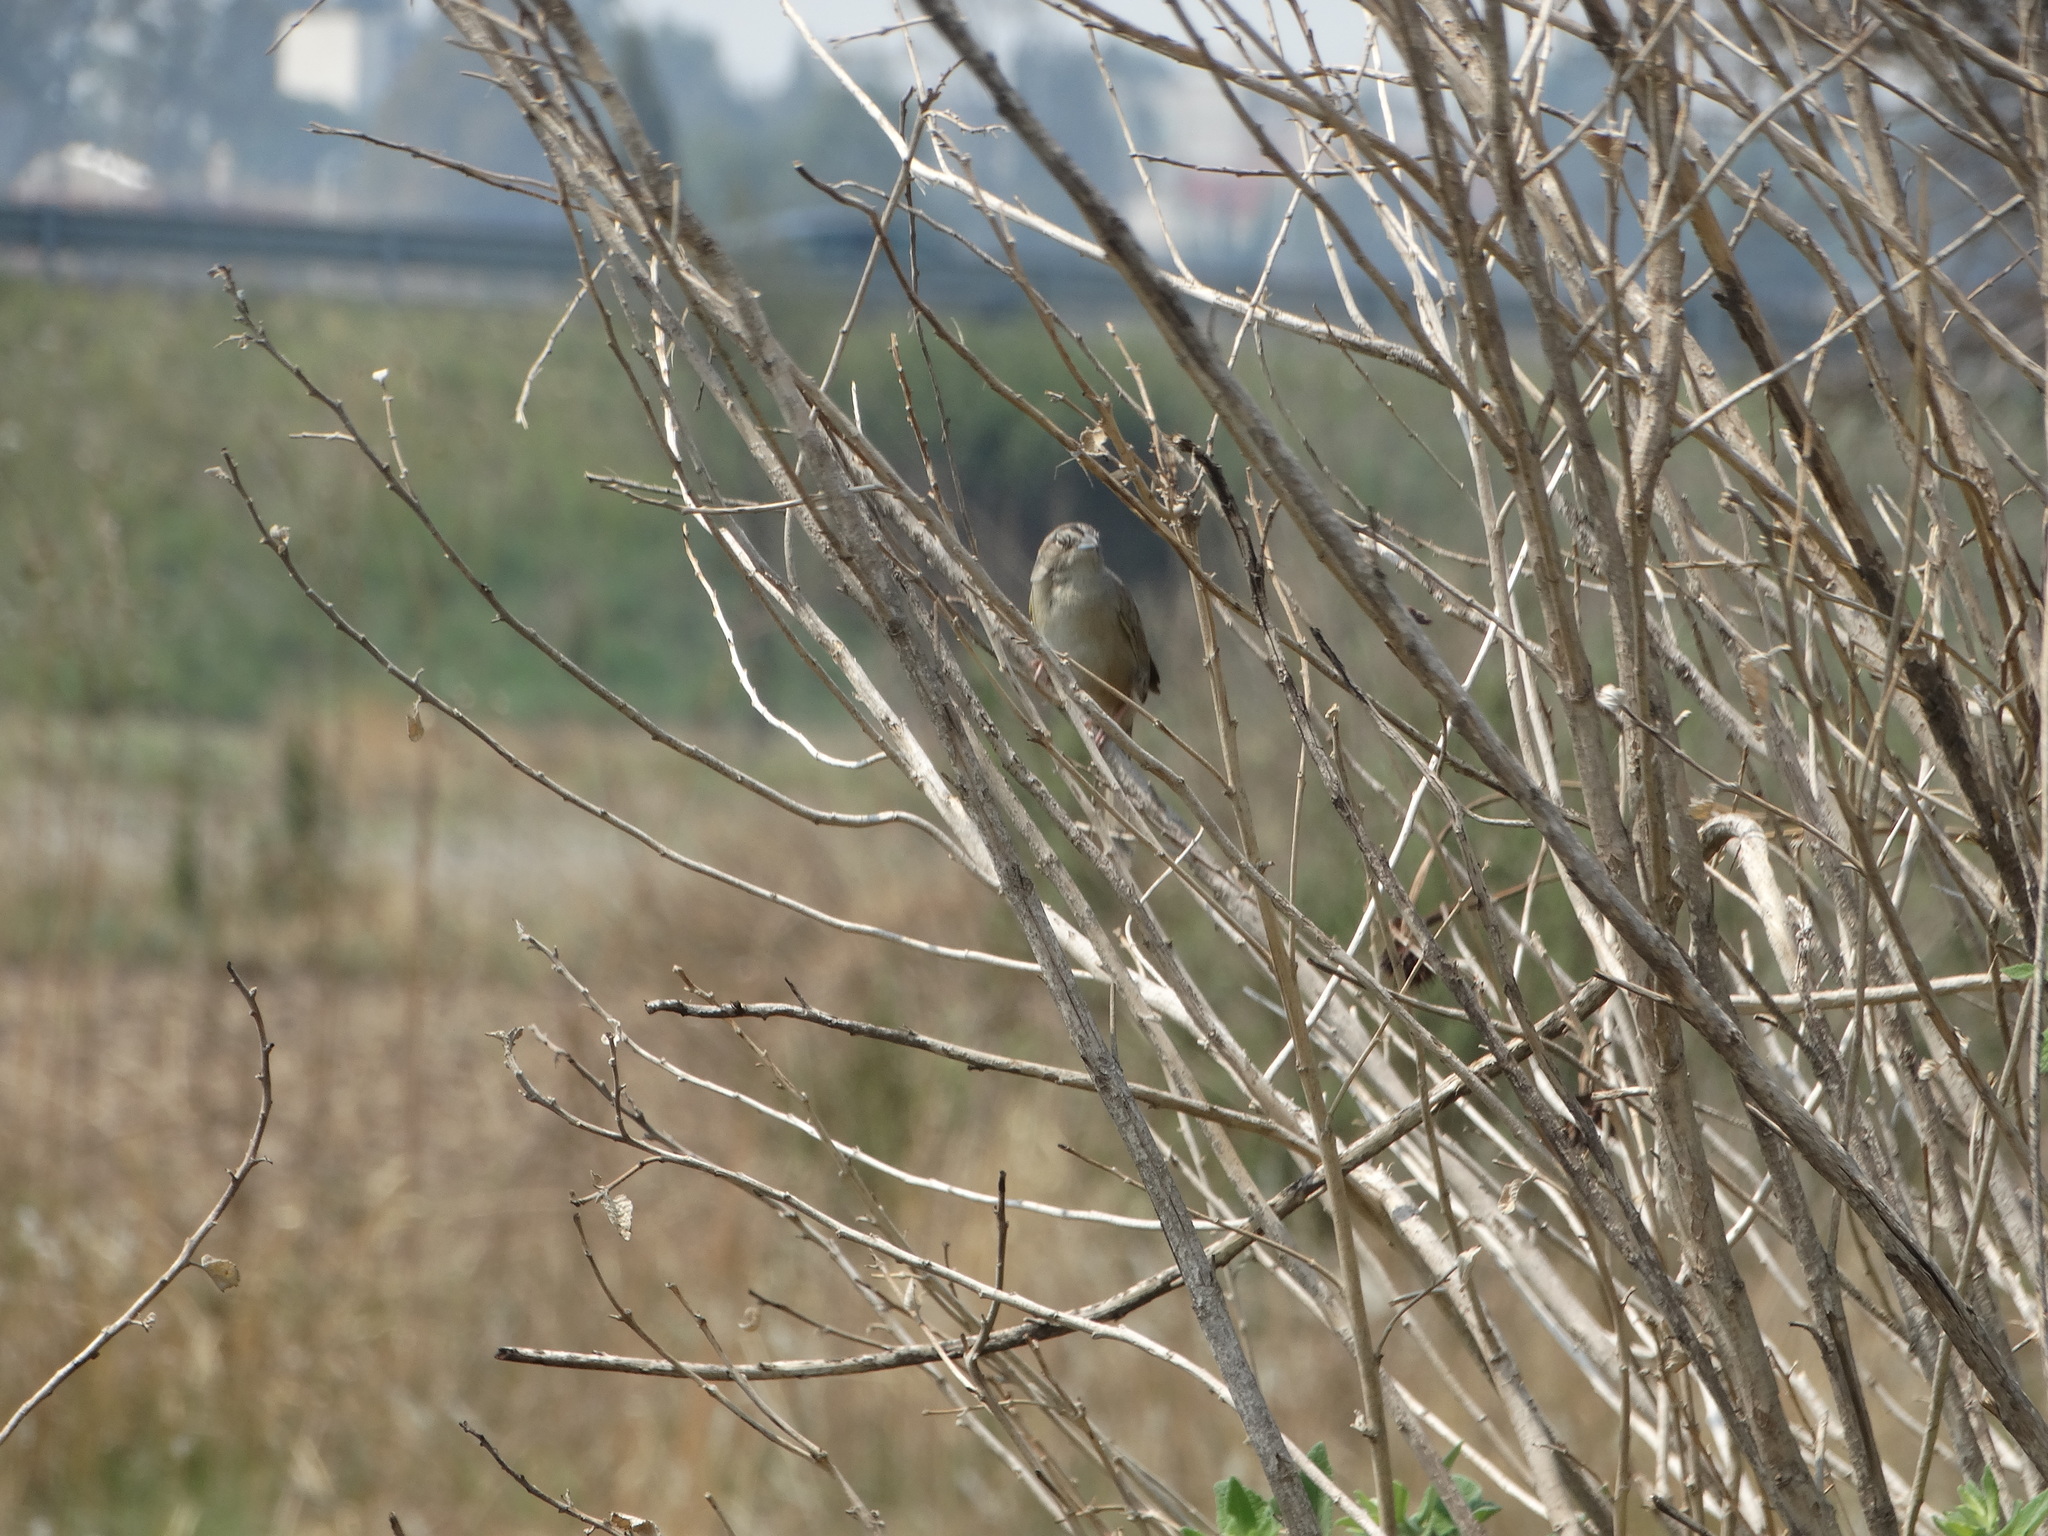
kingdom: Animalia
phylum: Chordata
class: Aves
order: Passeriformes
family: Passerellidae
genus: Peucaea
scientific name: Peucaea botterii
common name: Botteri's sparrow
